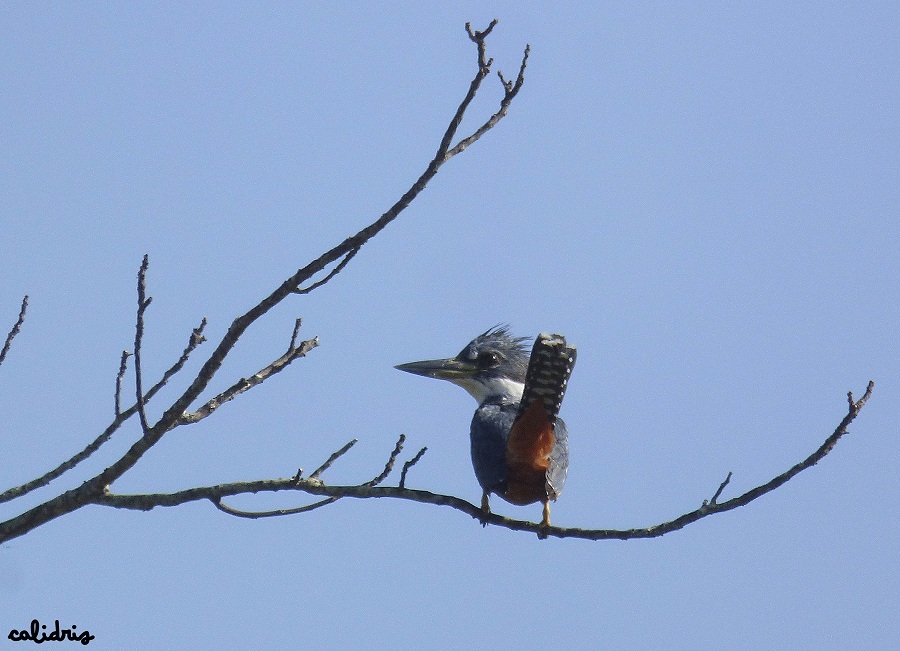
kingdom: Animalia
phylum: Chordata
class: Aves
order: Coraciiformes
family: Alcedinidae
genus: Megaceryle
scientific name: Megaceryle torquata
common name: Ringed kingfisher
